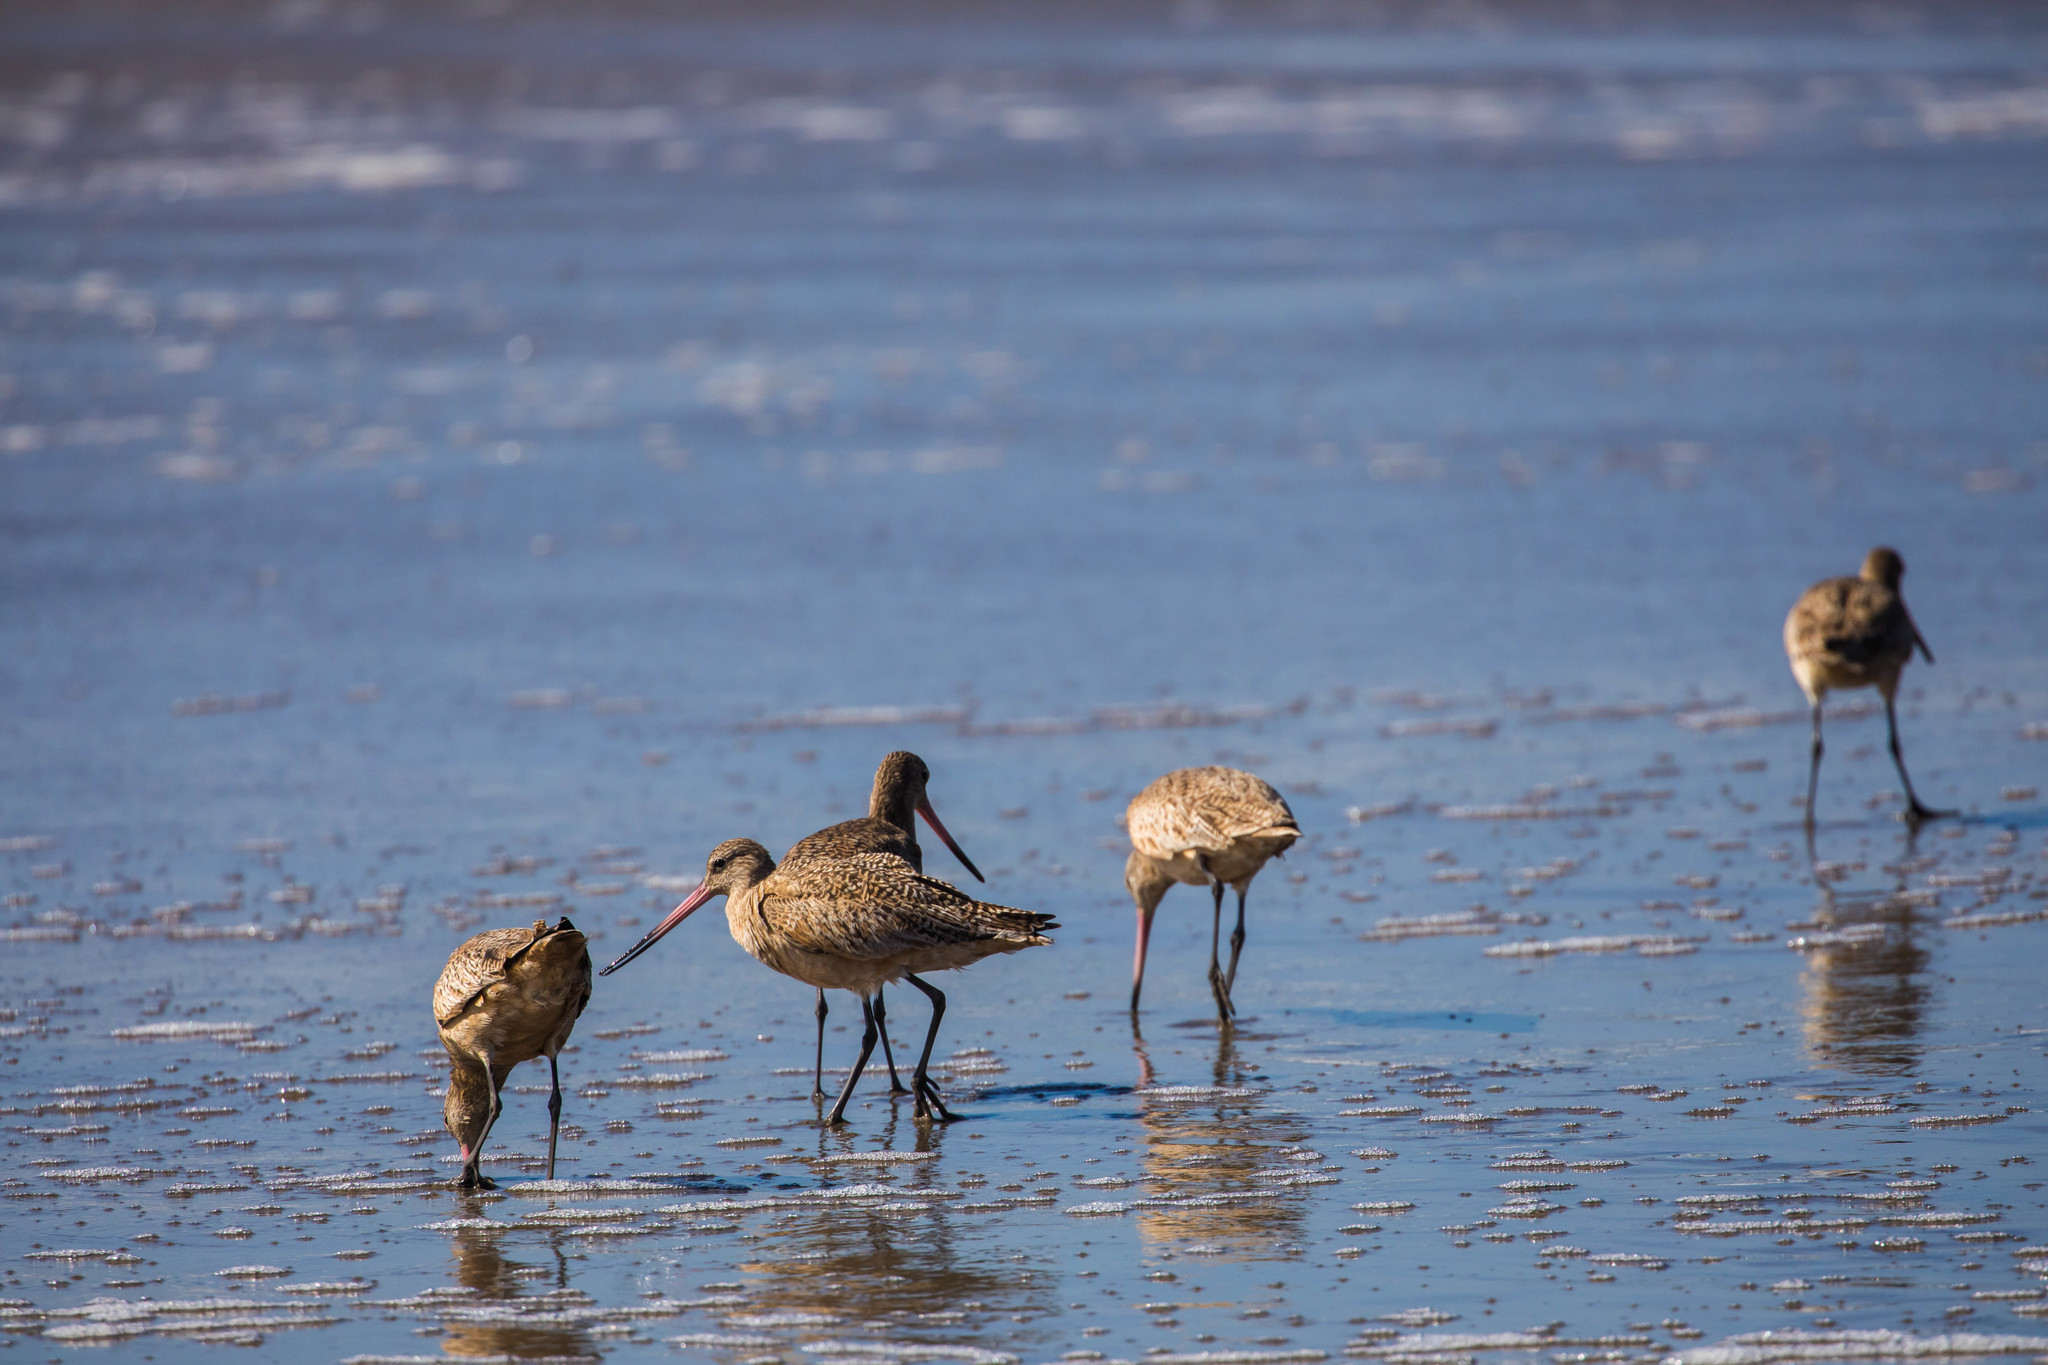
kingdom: Animalia
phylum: Chordata
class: Aves
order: Charadriiformes
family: Scolopacidae
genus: Limosa
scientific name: Limosa fedoa
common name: Marbled godwit
